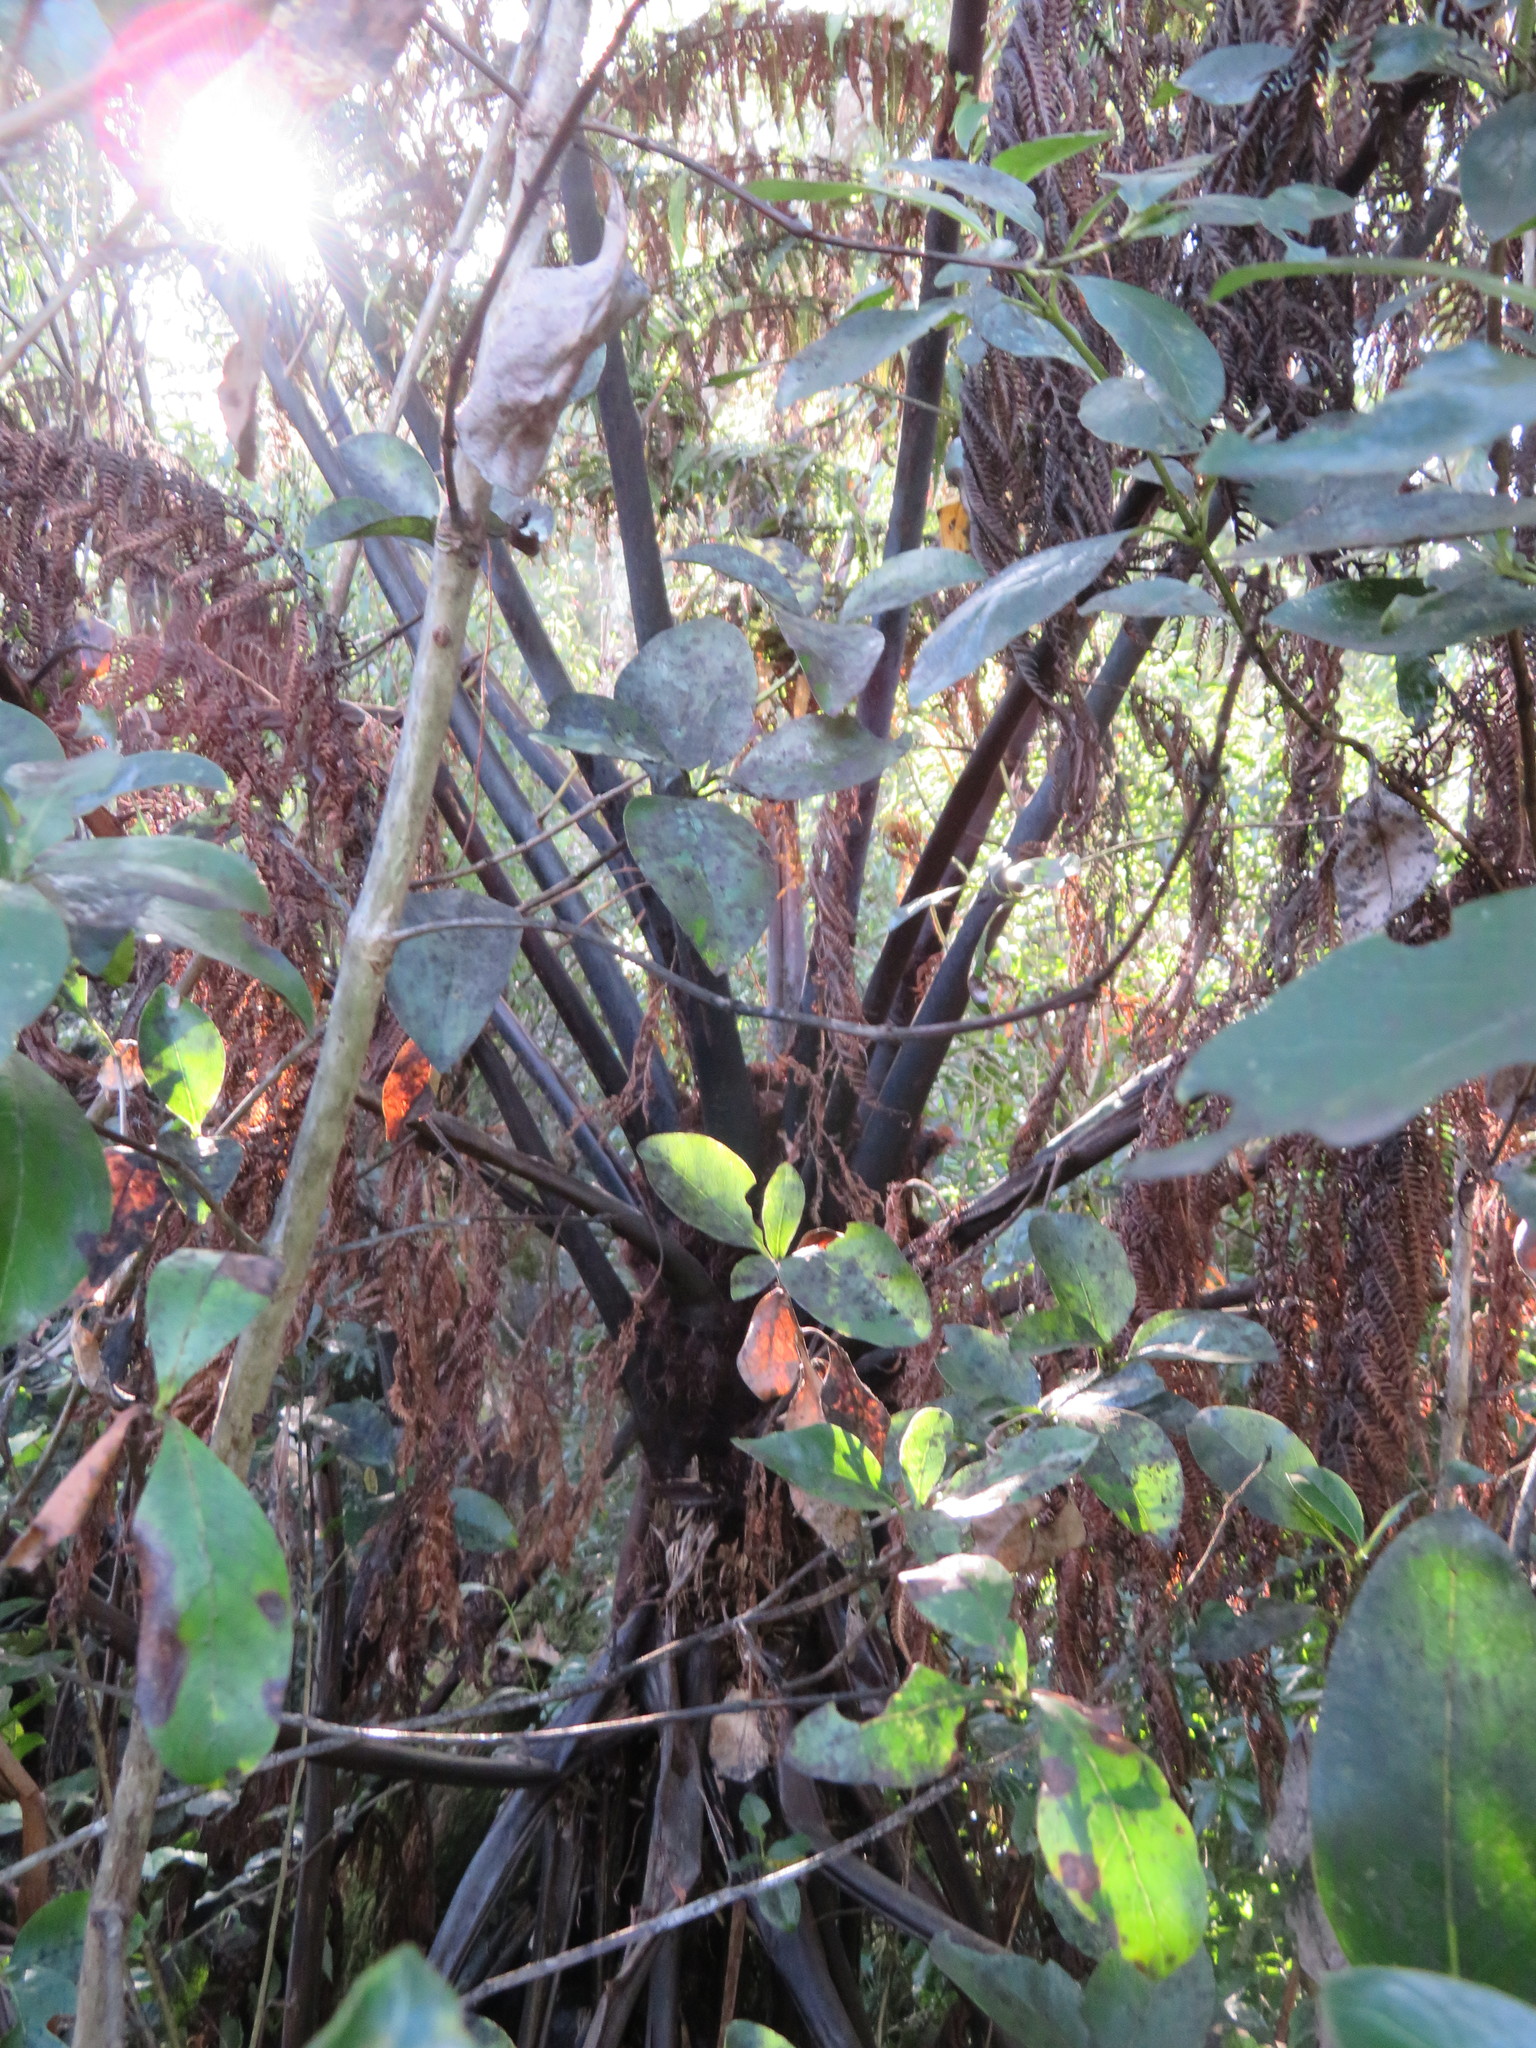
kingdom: Plantae
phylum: Tracheophyta
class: Polypodiopsida
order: Cyatheales
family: Cyatheaceae
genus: Sphaeropteris
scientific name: Sphaeropteris medullaris
